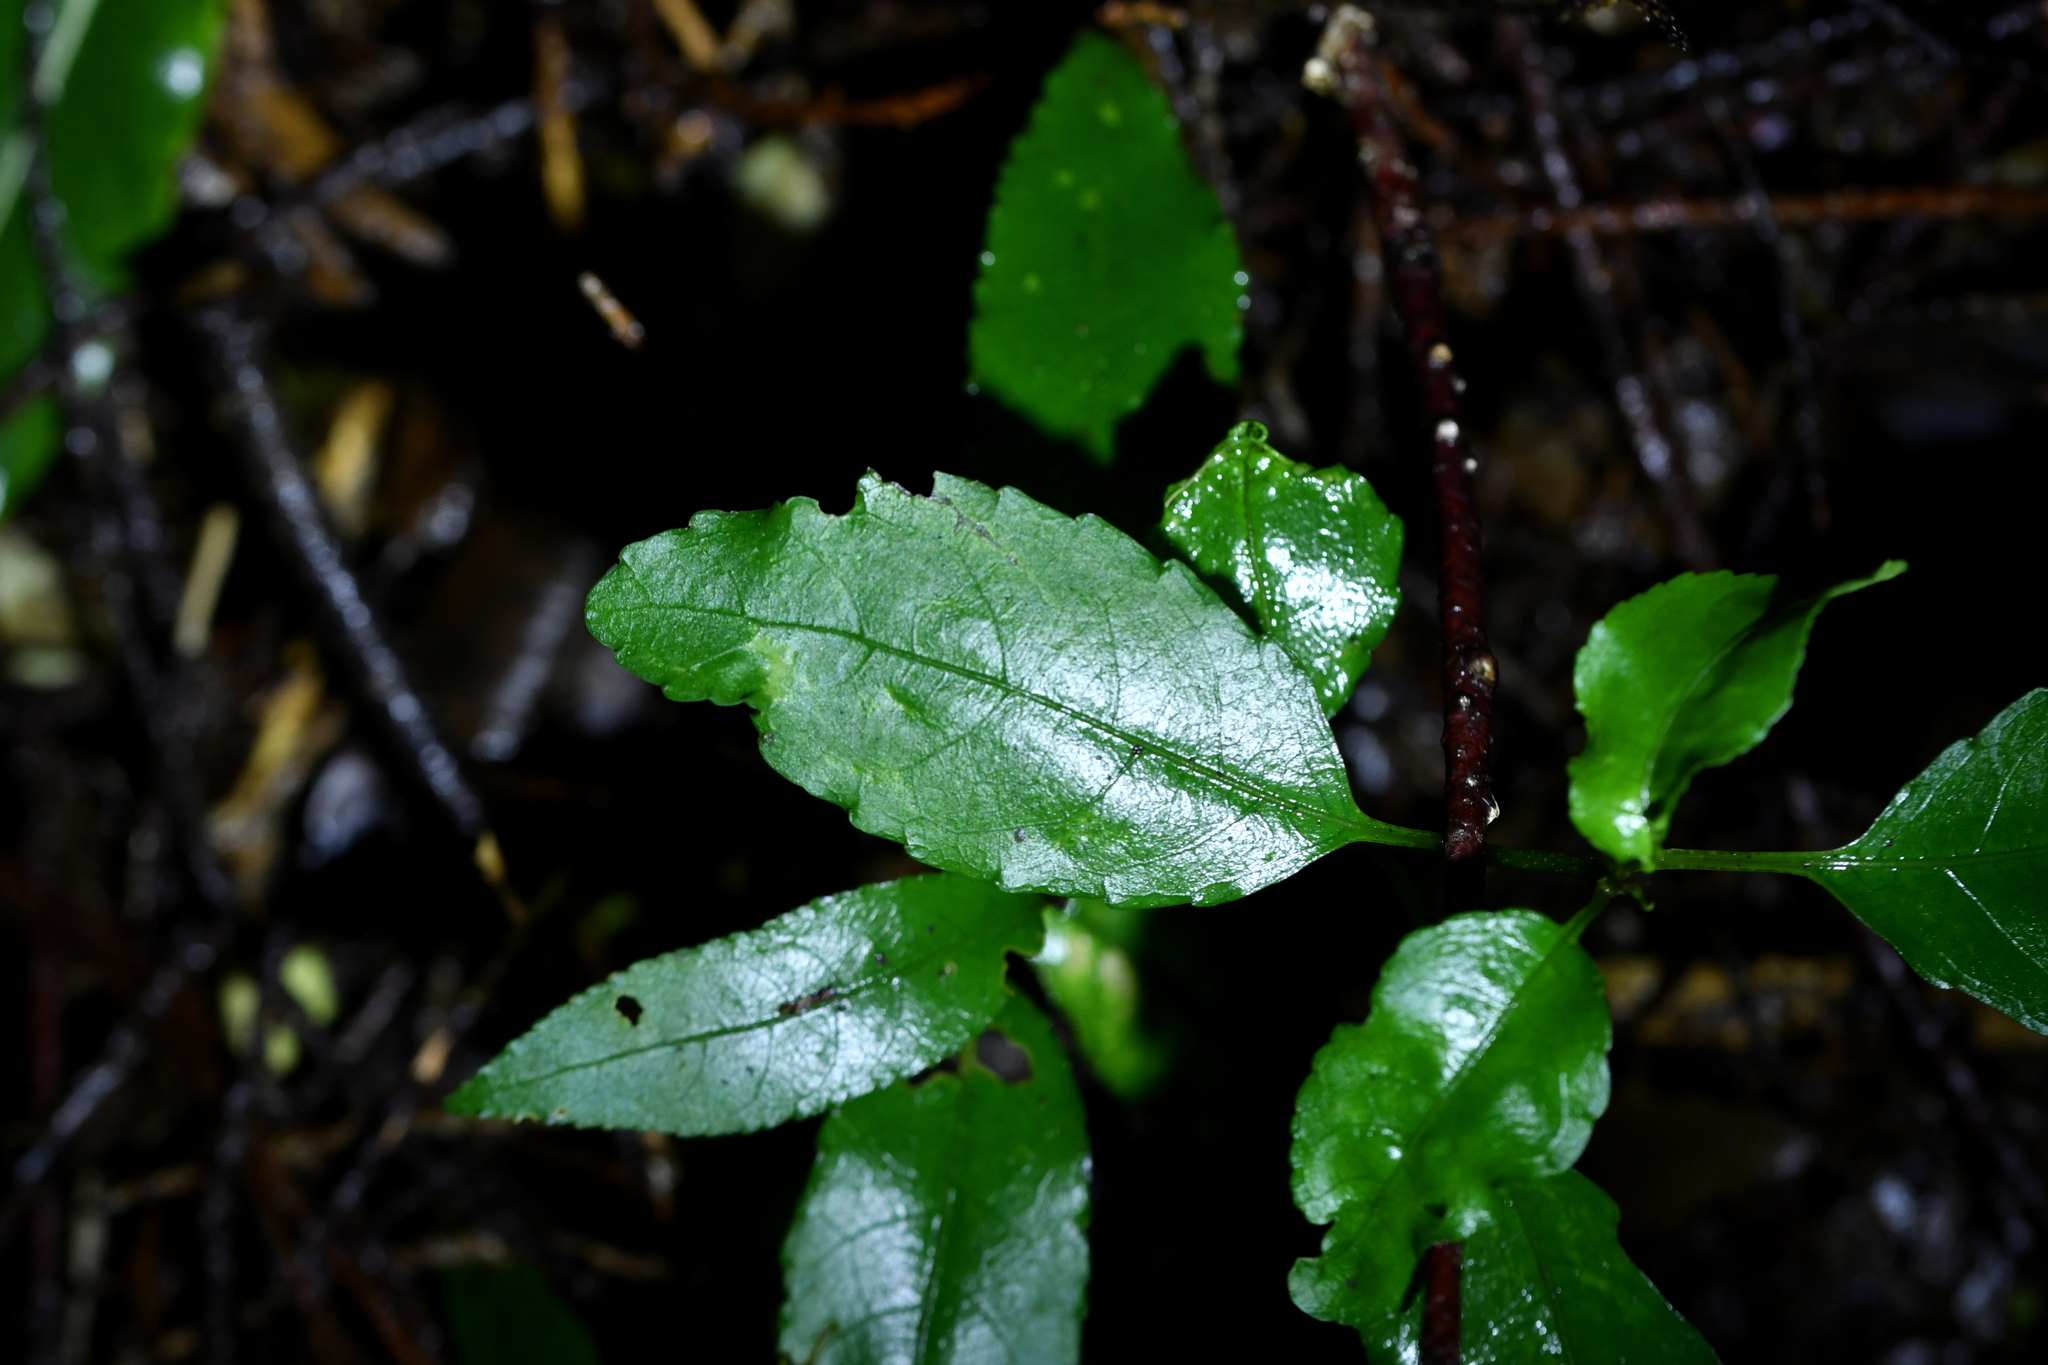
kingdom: Plantae
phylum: Tracheophyta
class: Magnoliopsida
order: Laurales
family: Monimiaceae
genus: Hedycarya
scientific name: Hedycarya arborea
